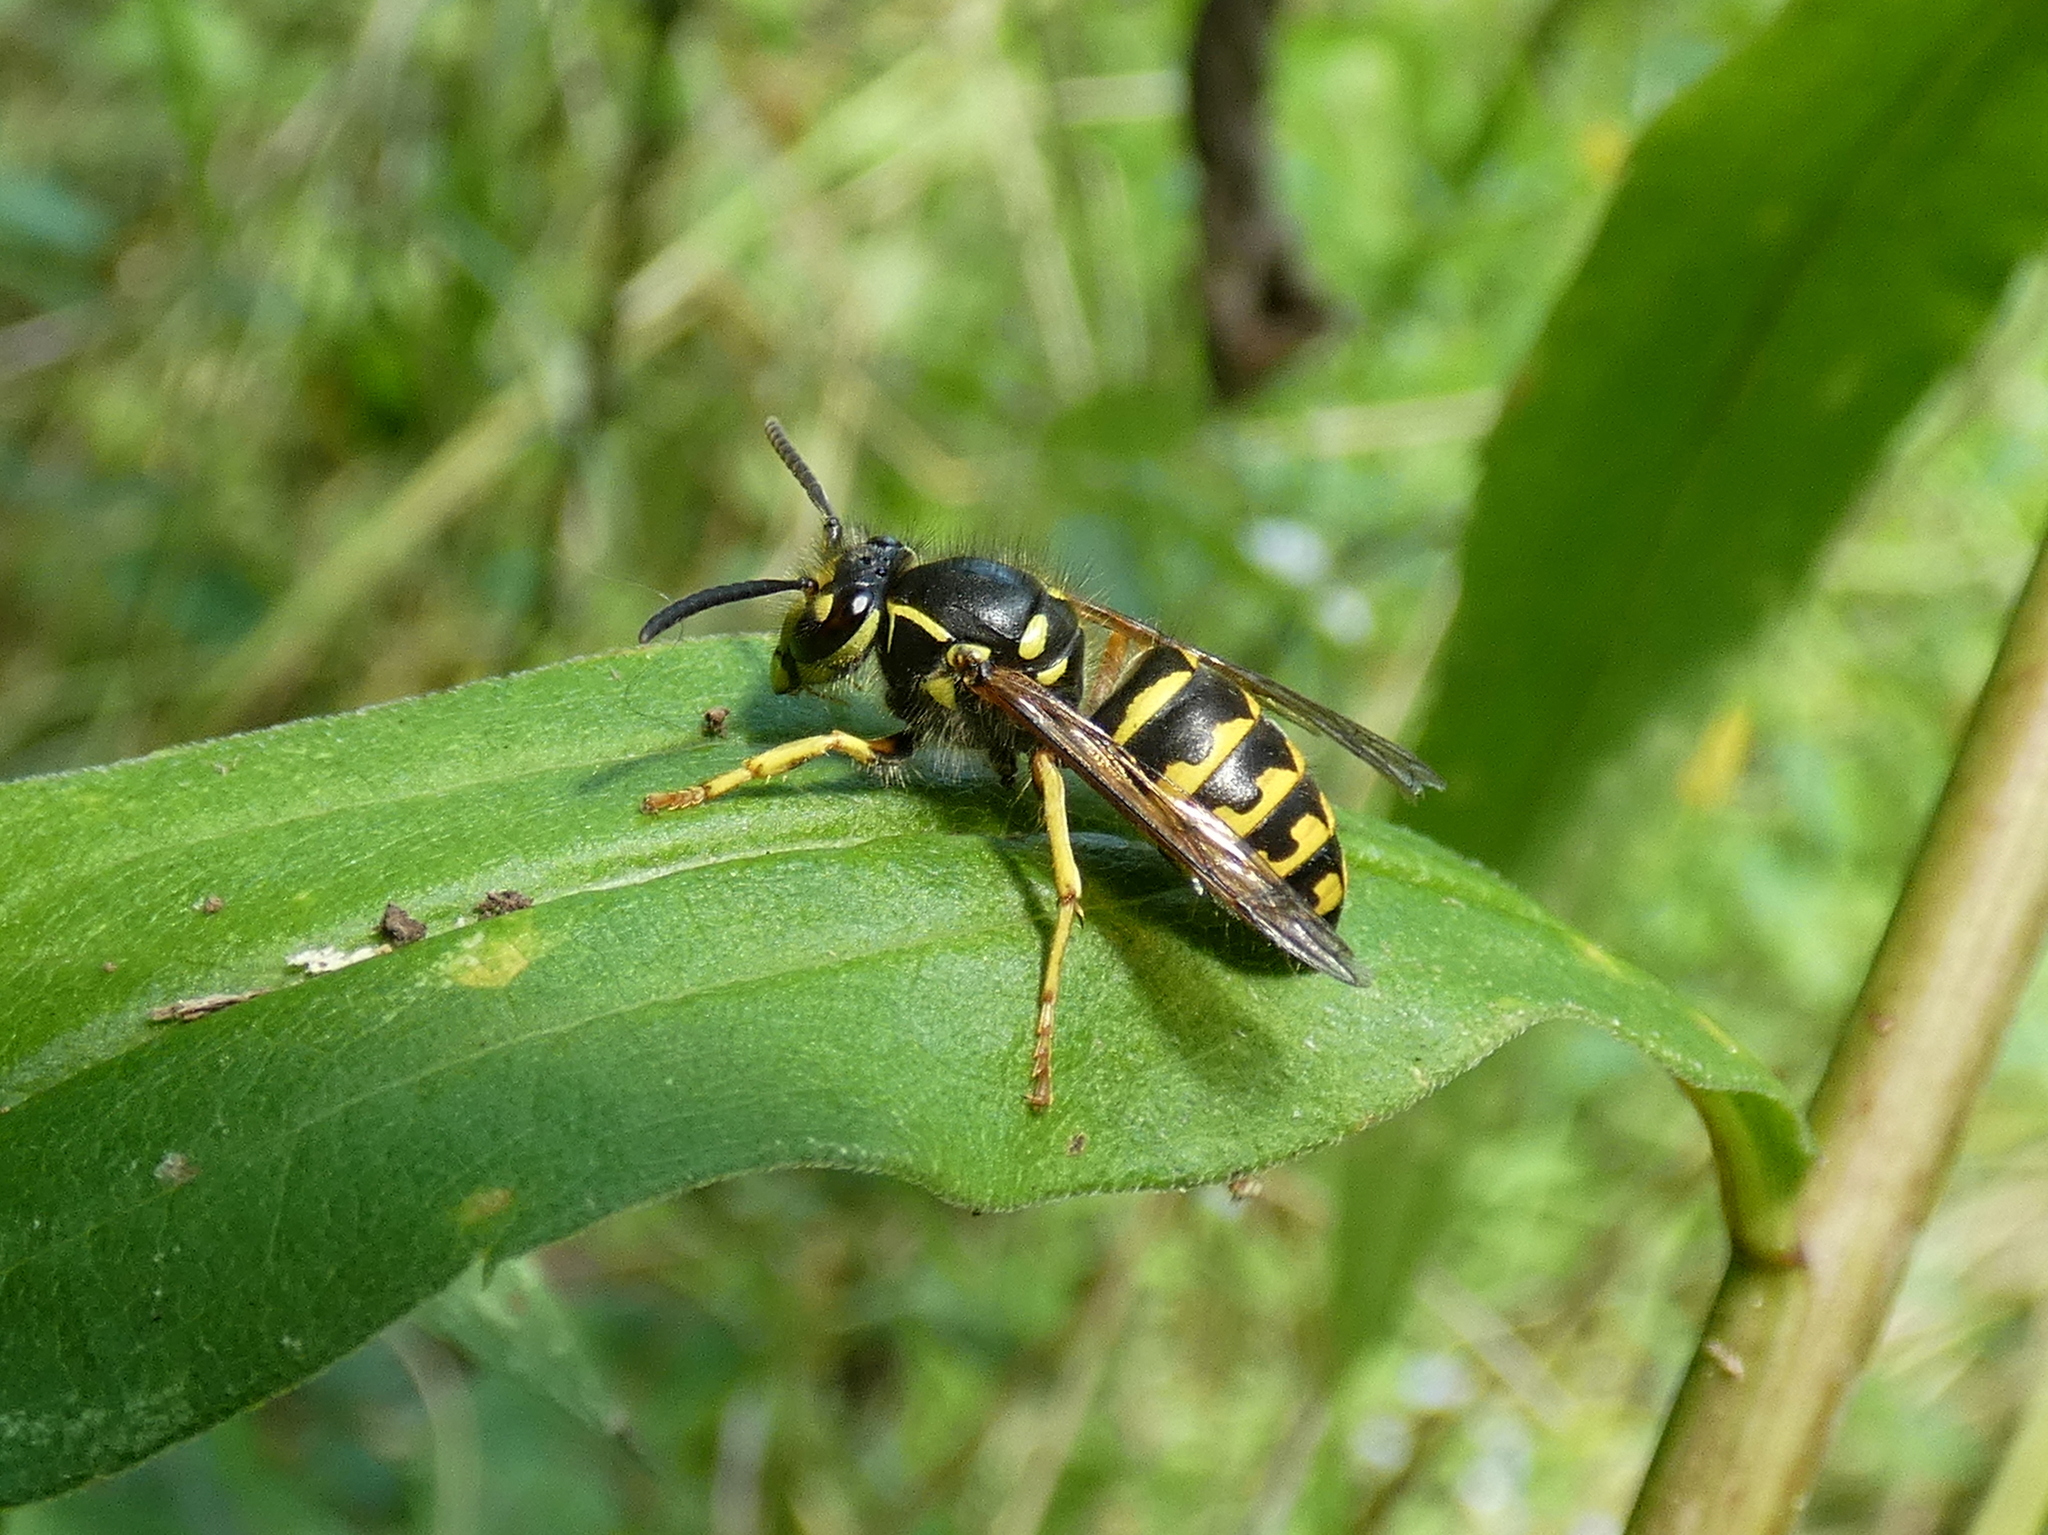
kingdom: Animalia
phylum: Arthropoda
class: Insecta
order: Hymenoptera
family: Vespidae
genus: Dolichovespula
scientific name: Dolichovespula arenaria
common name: Aerial yellowjacket
